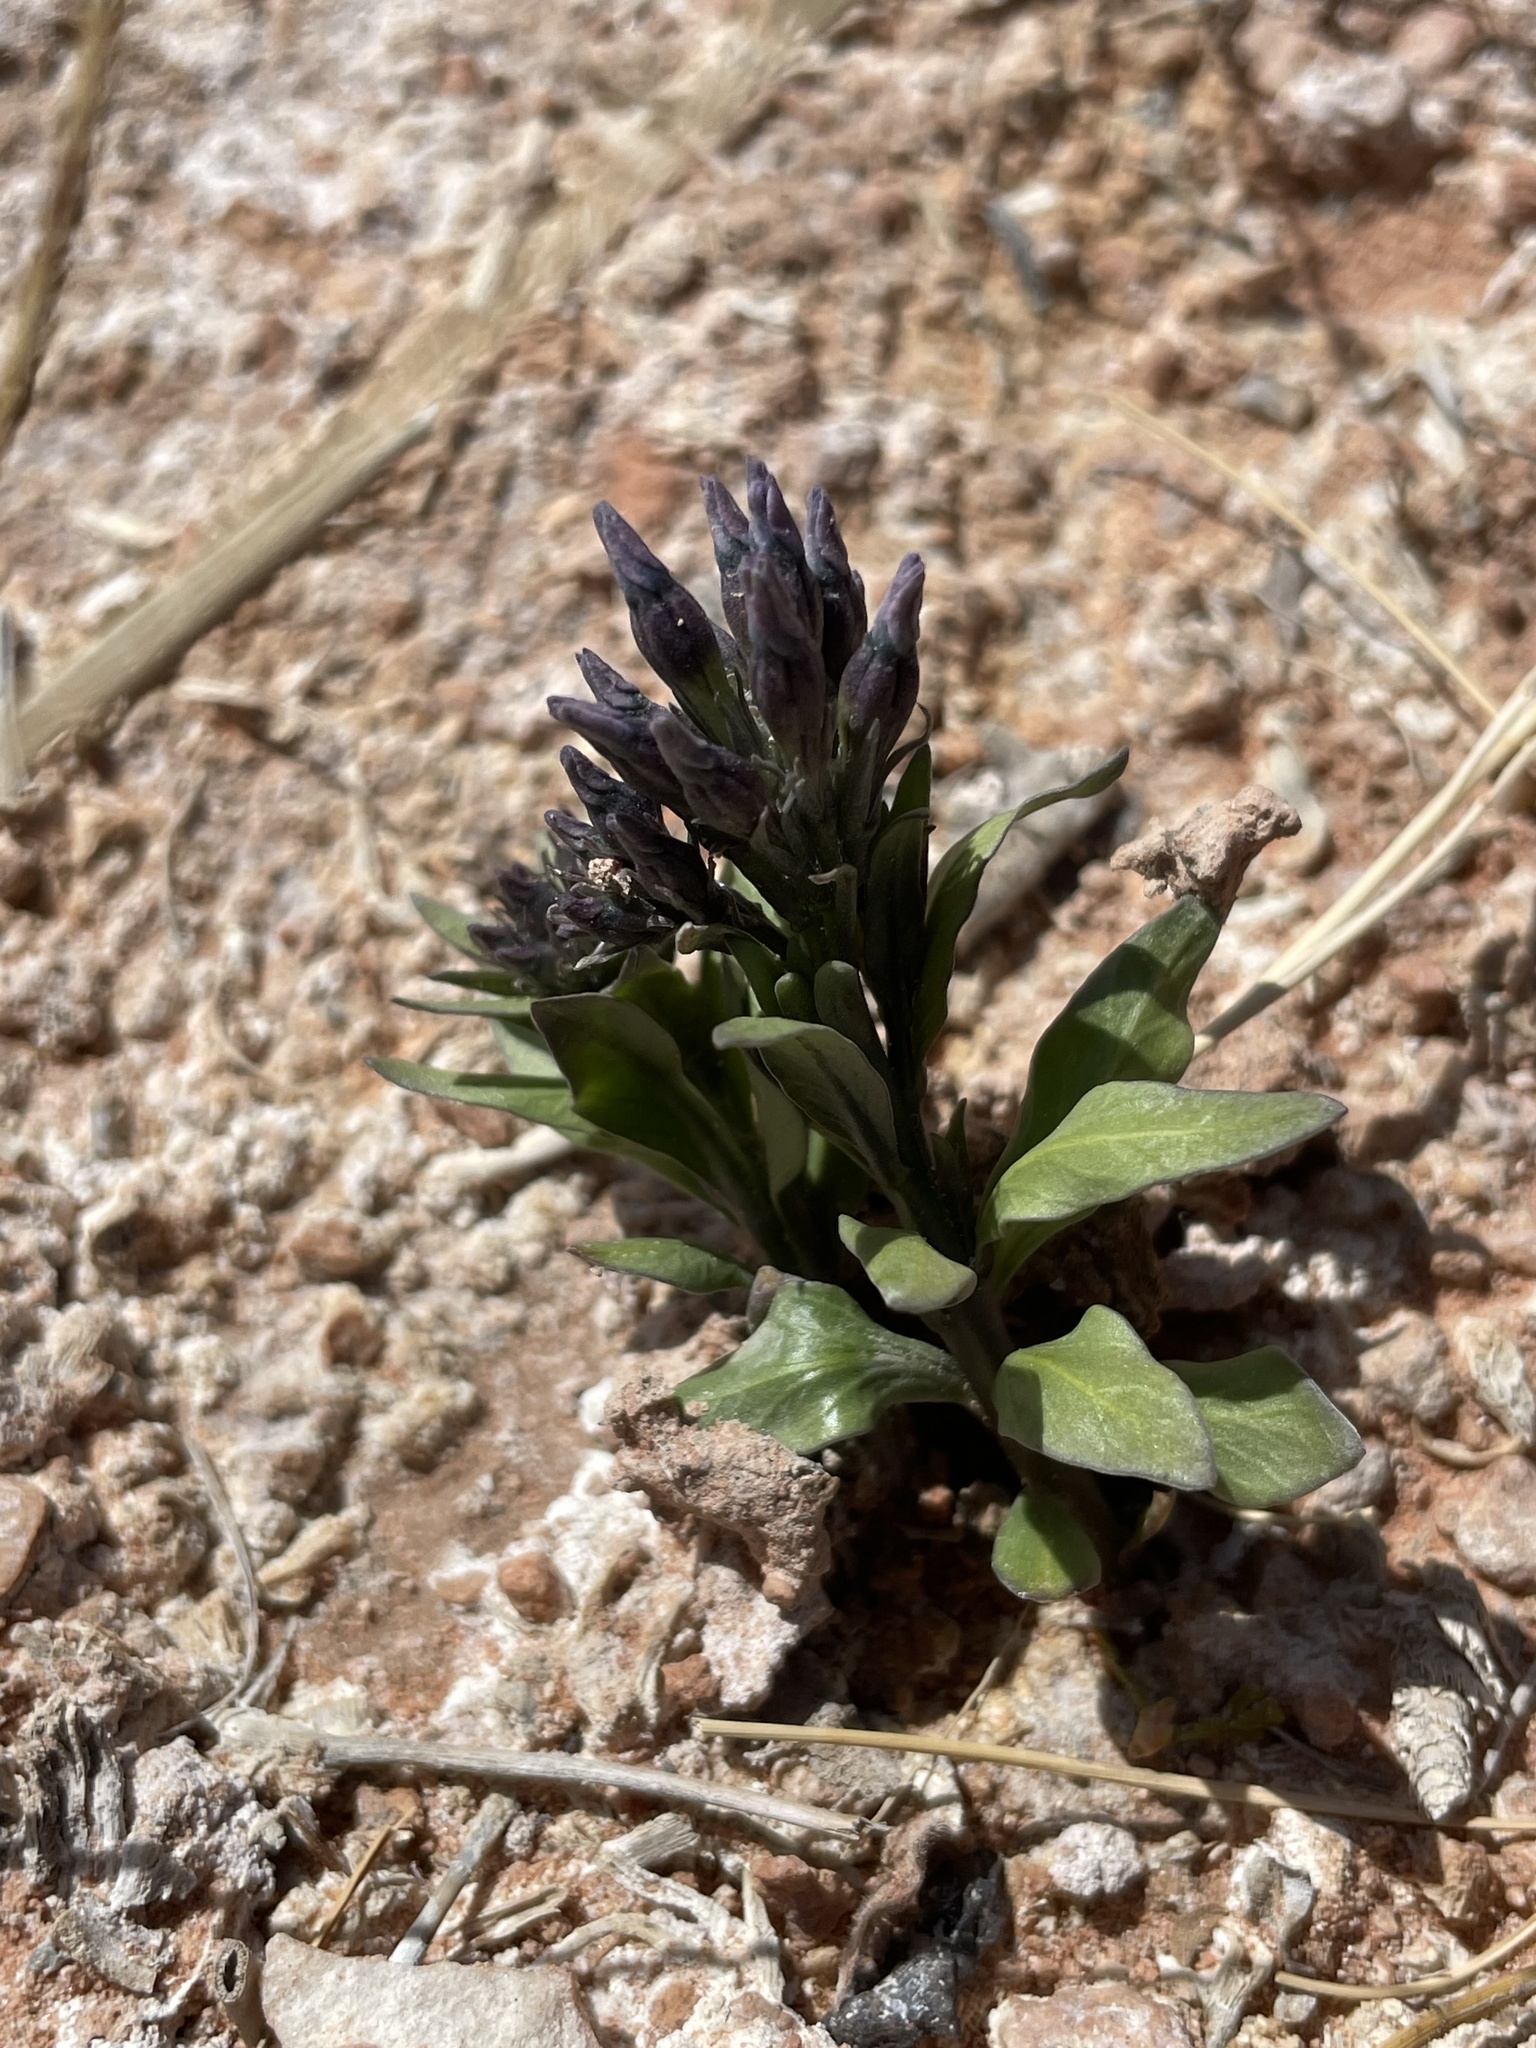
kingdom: Plantae
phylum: Tracheophyta
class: Magnoliopsida
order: Gentianales
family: Apocynaceae
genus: Amsonia
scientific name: Amsonia tomentosa
